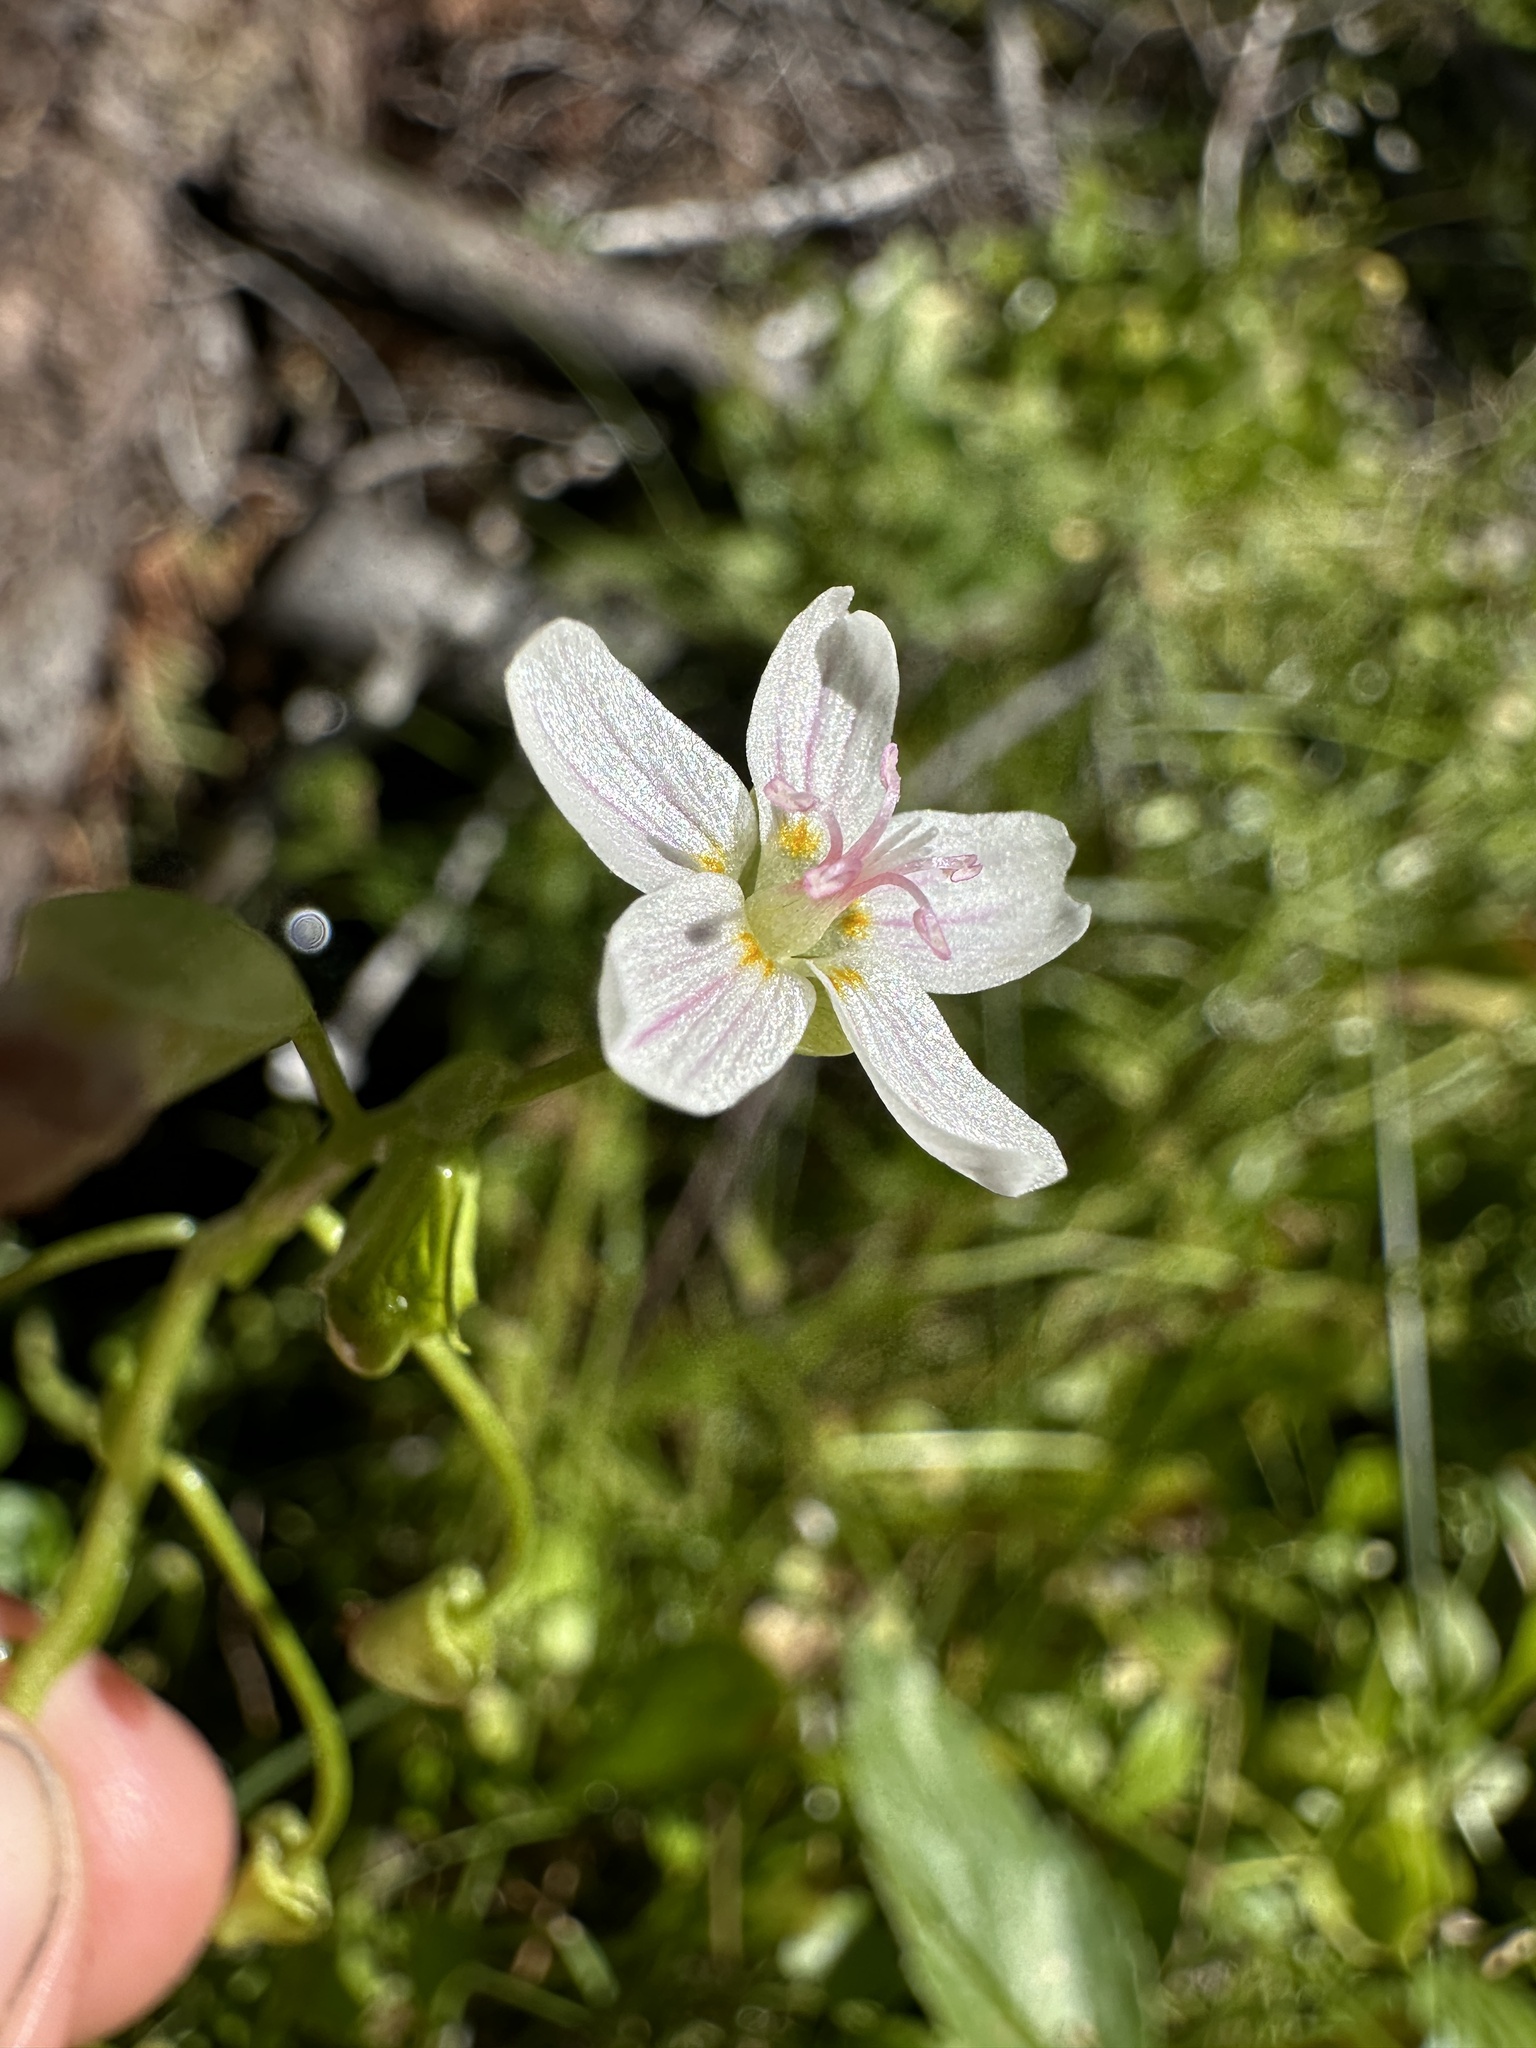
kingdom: Plantae
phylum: Tracheophyta
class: Magnoliopsida
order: Caryophyllales
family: Montiaceae
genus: Claytonia
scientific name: Claytonia palustris
